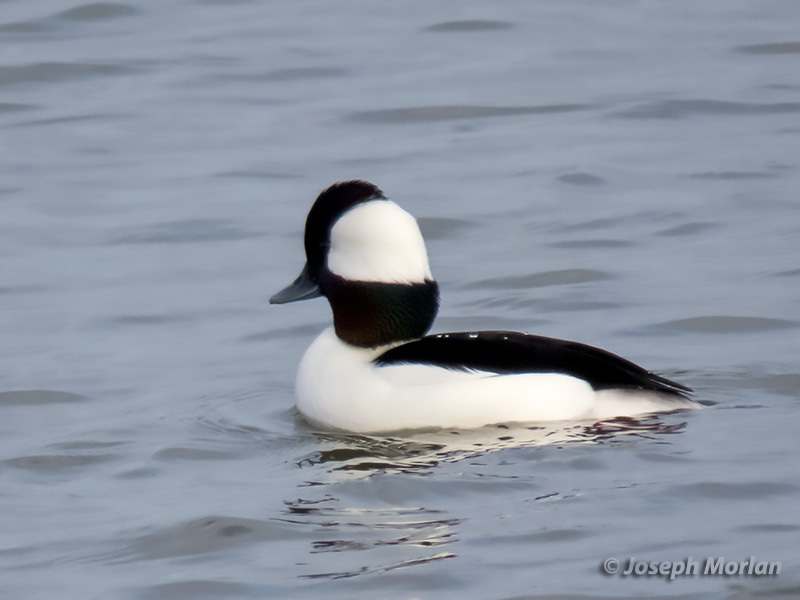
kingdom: Animalia
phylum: Chordata
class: Aves
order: Anseriformes
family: Anatidae
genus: Bucephala
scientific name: Bucephala albeola
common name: Bufflehead
